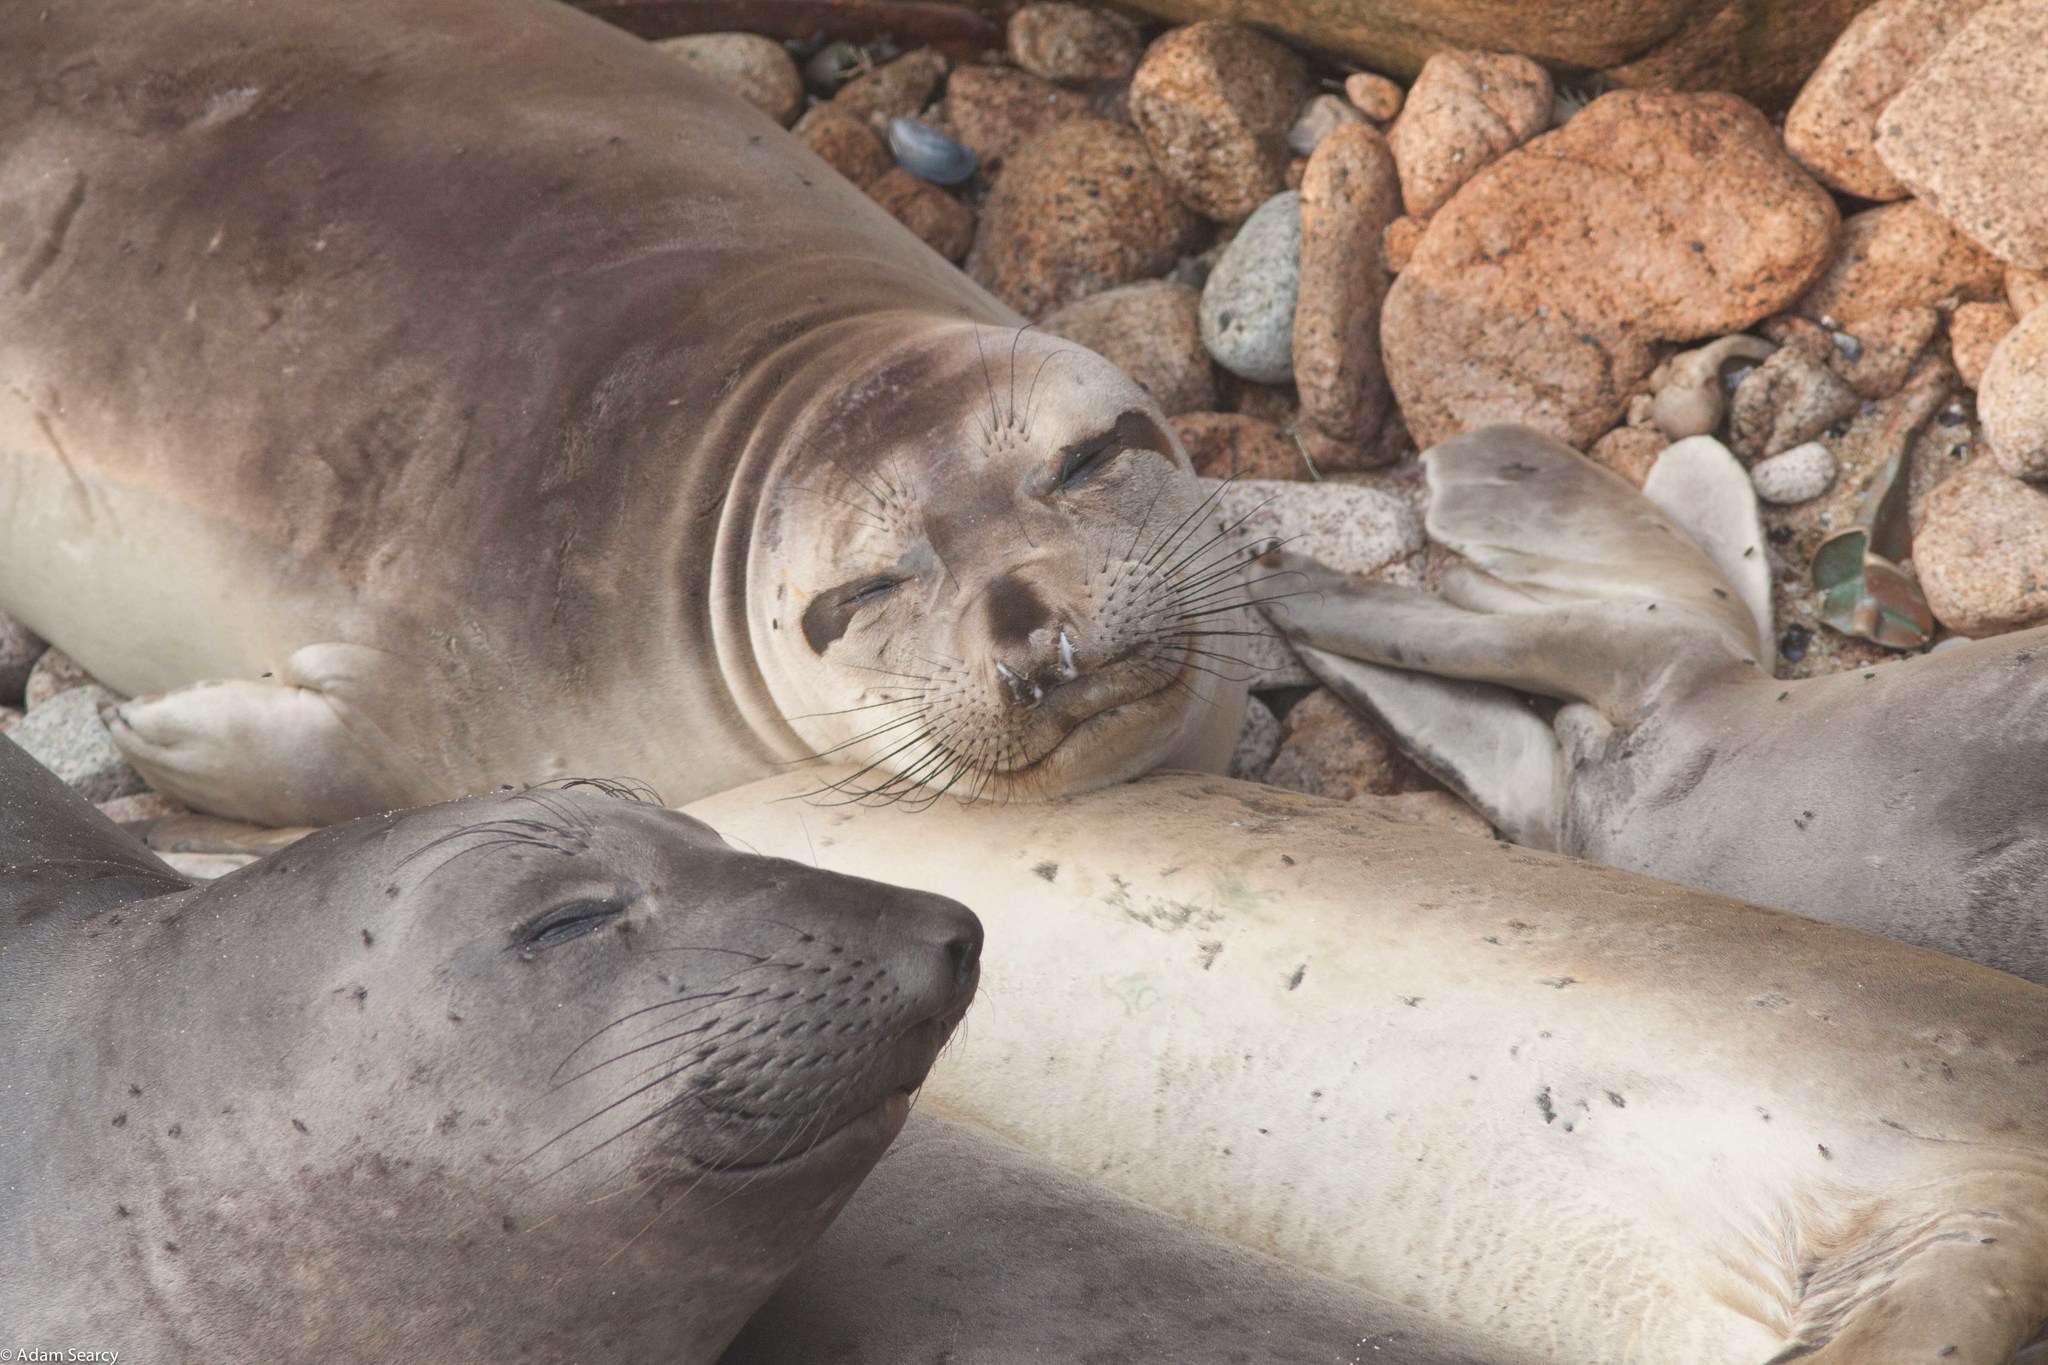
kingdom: Animalia
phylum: Chordata
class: Mammalia
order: Carnivora
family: Phocidae
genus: Mirounga
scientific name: Mirounga angustirostris
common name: Northern elephant seal
